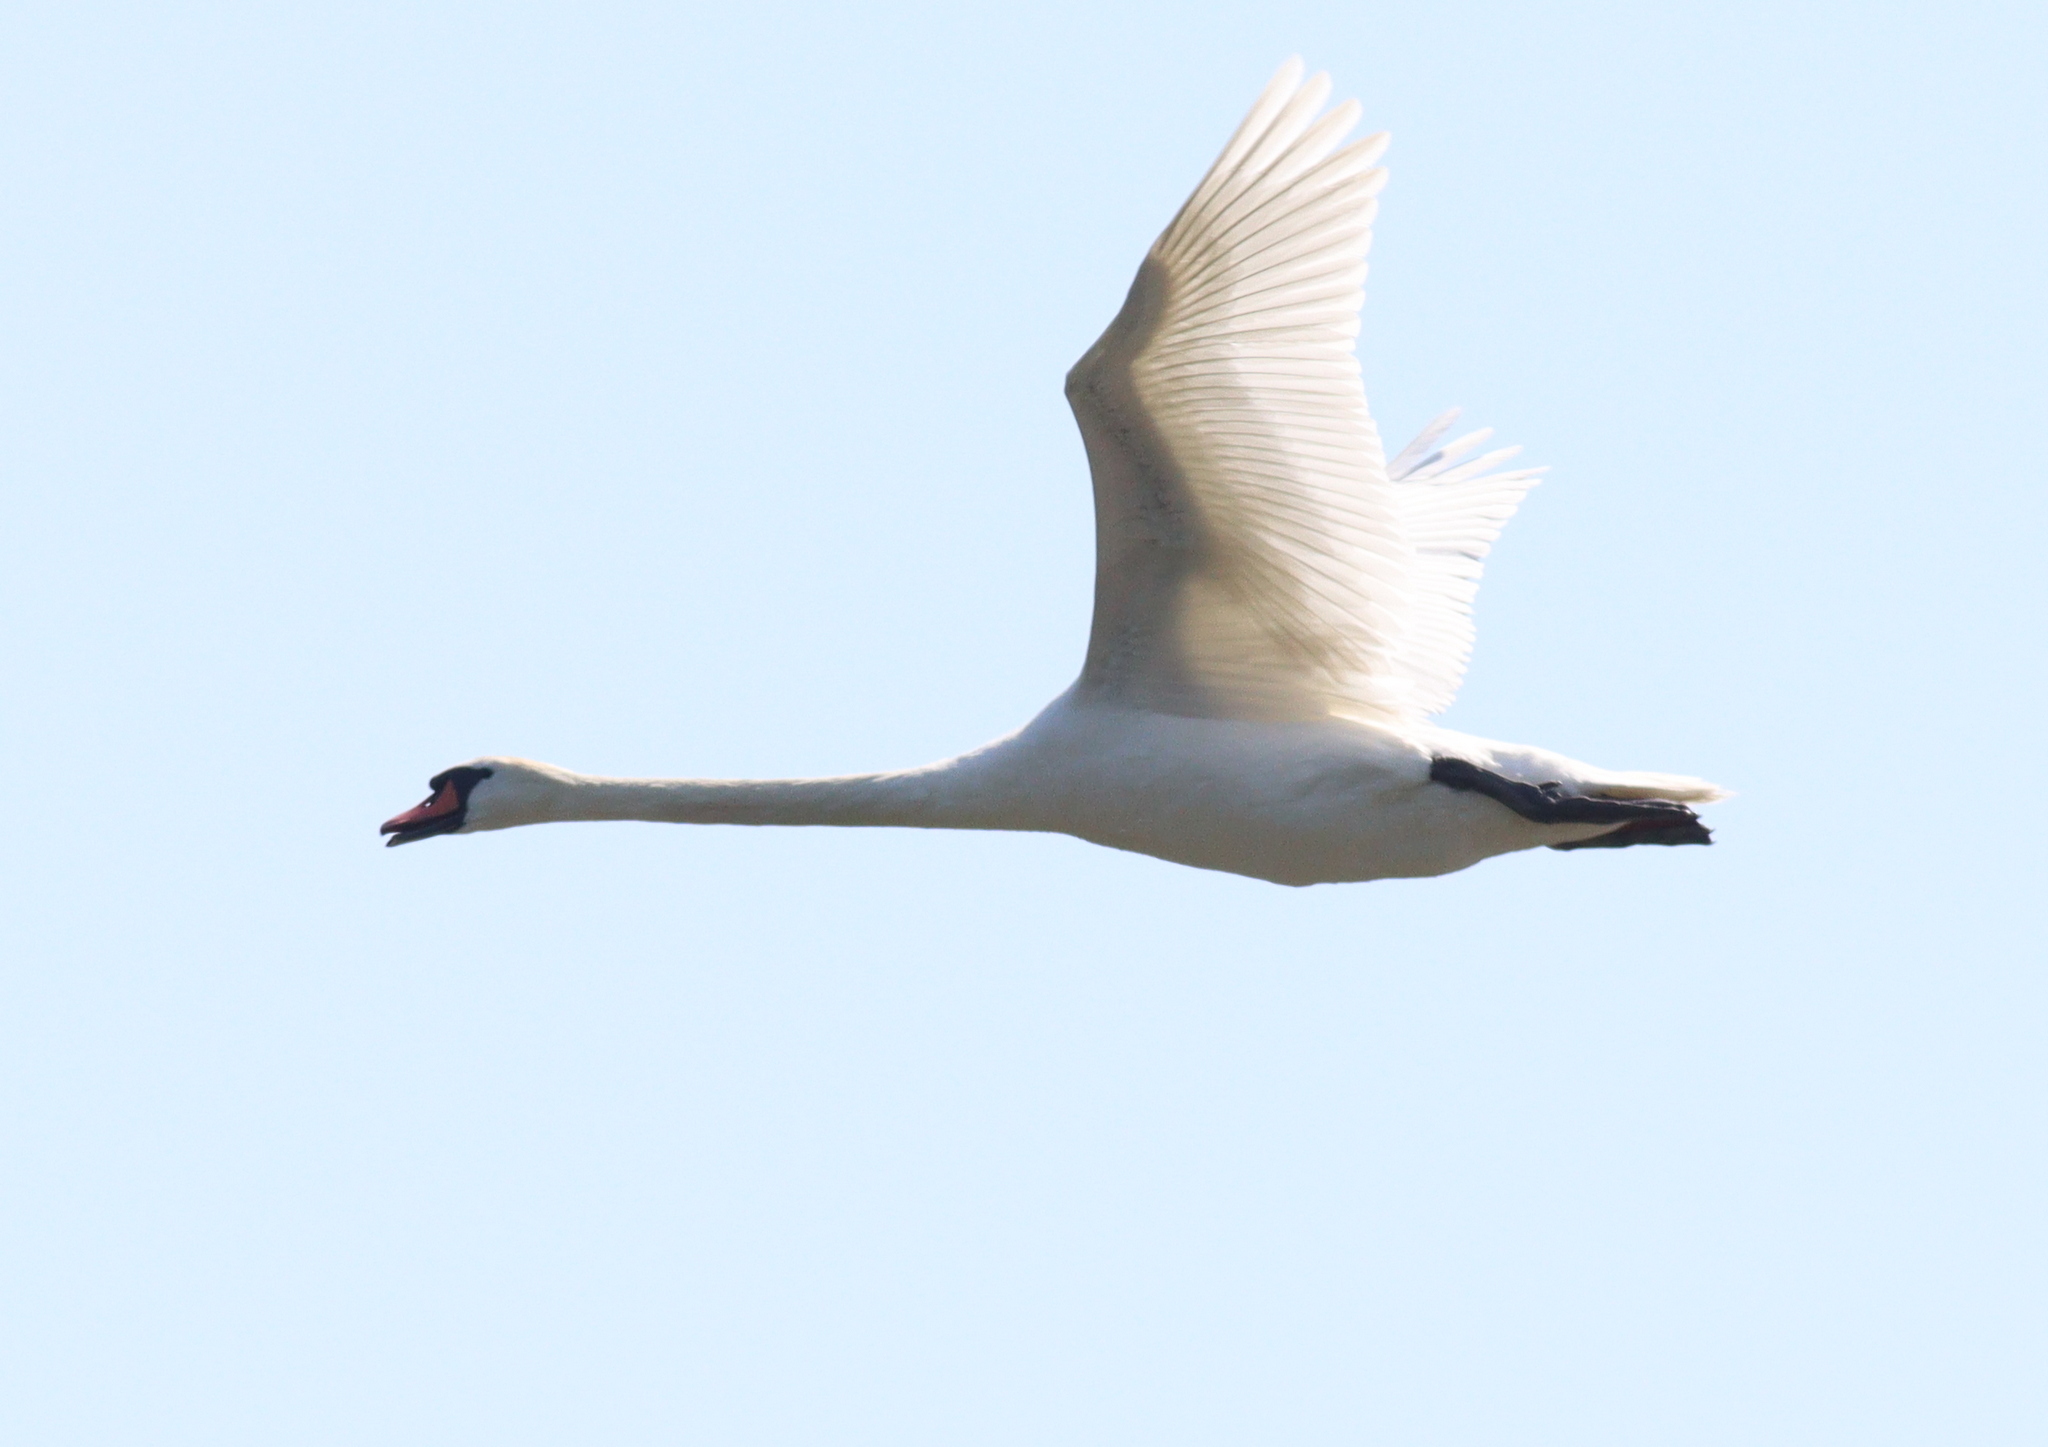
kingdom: Animalia
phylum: Chordata
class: Aves
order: Anseriformes
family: Anatidae
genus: Cygnus
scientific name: Cygnus olor
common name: Mute swan
